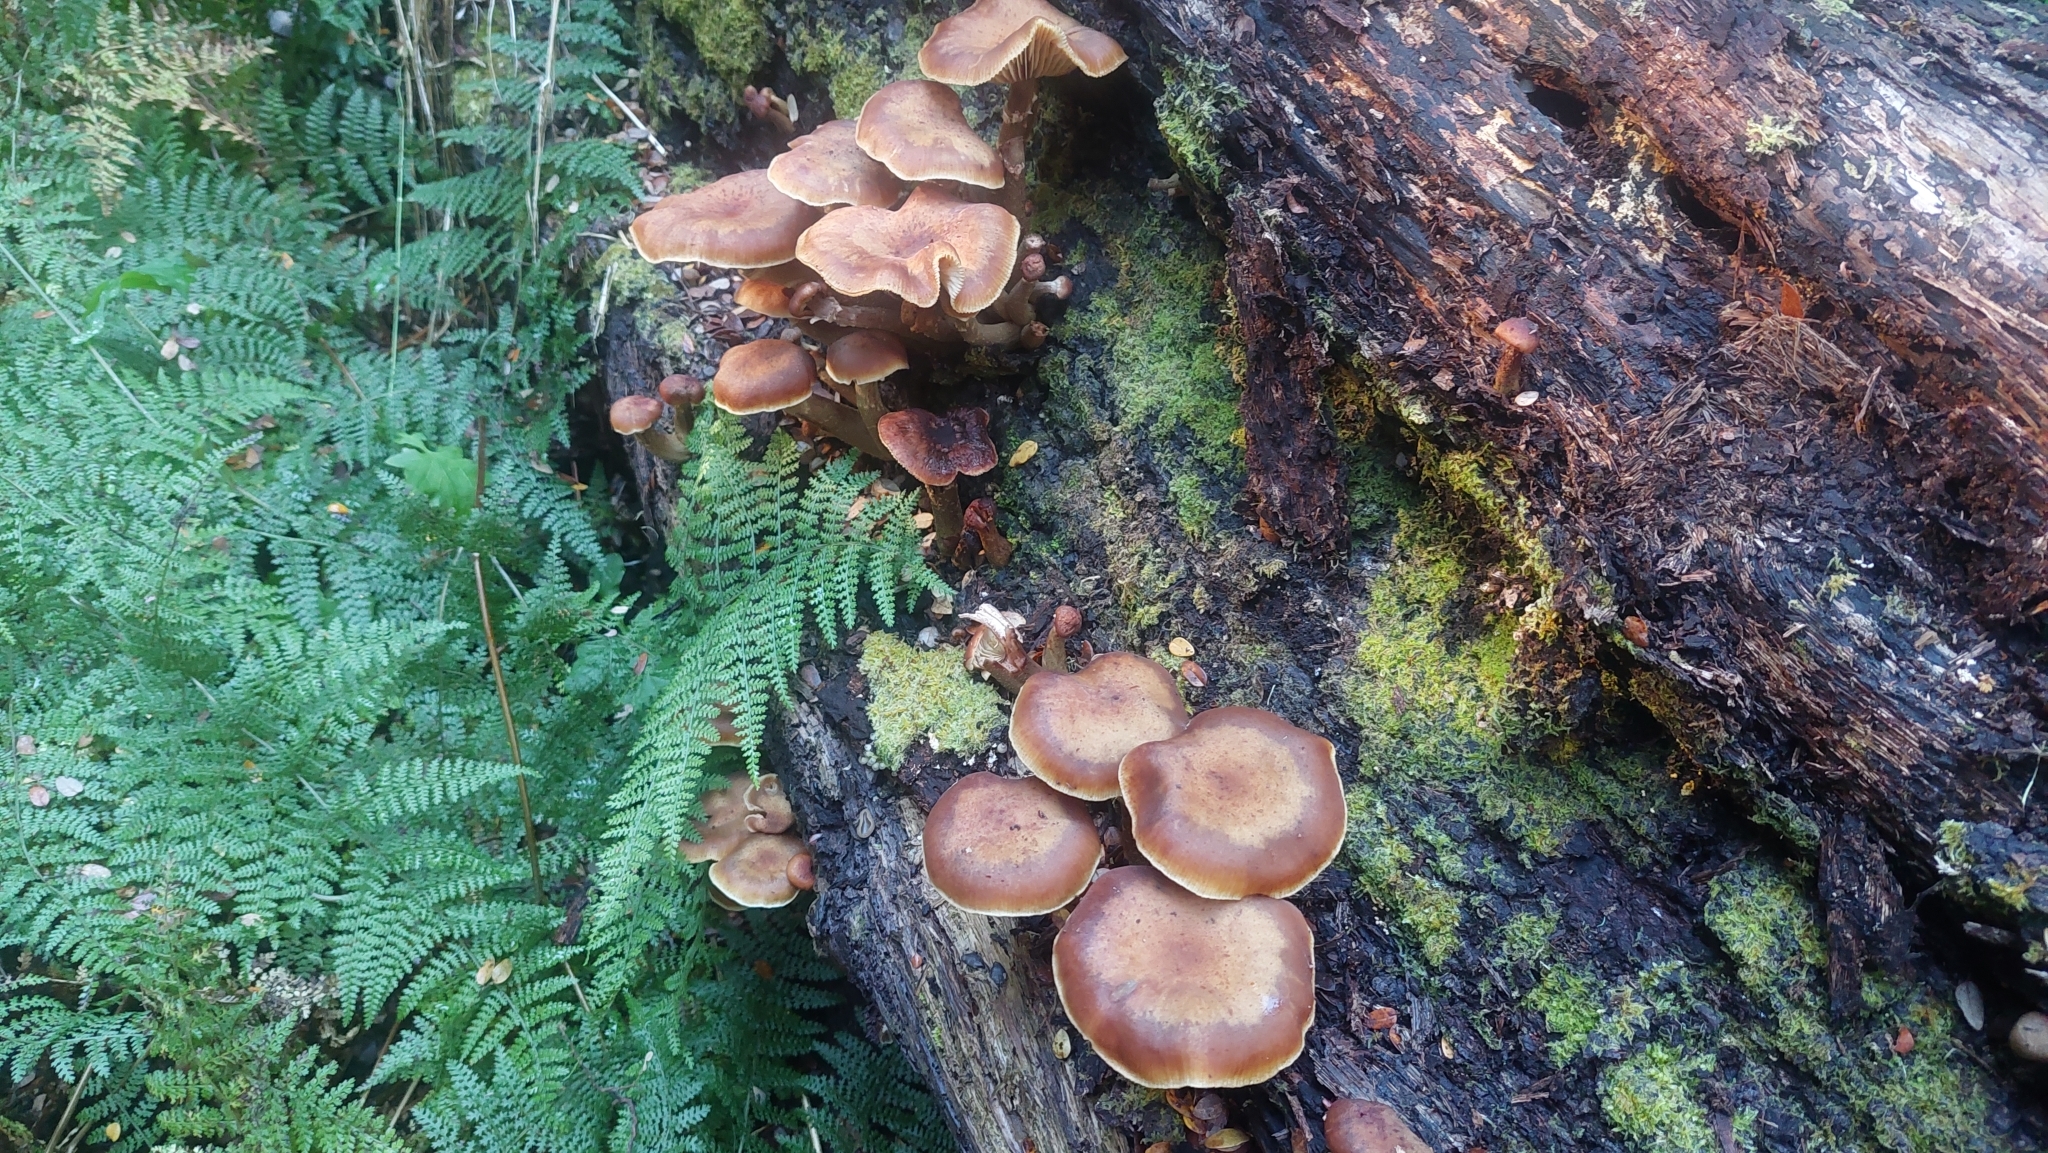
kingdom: Fungi
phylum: Basidiomycota
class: Agaricomycetes
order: Agaricales
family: Physalacriaceae
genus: Armillaria
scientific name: Armillaria novae-zelandiae
